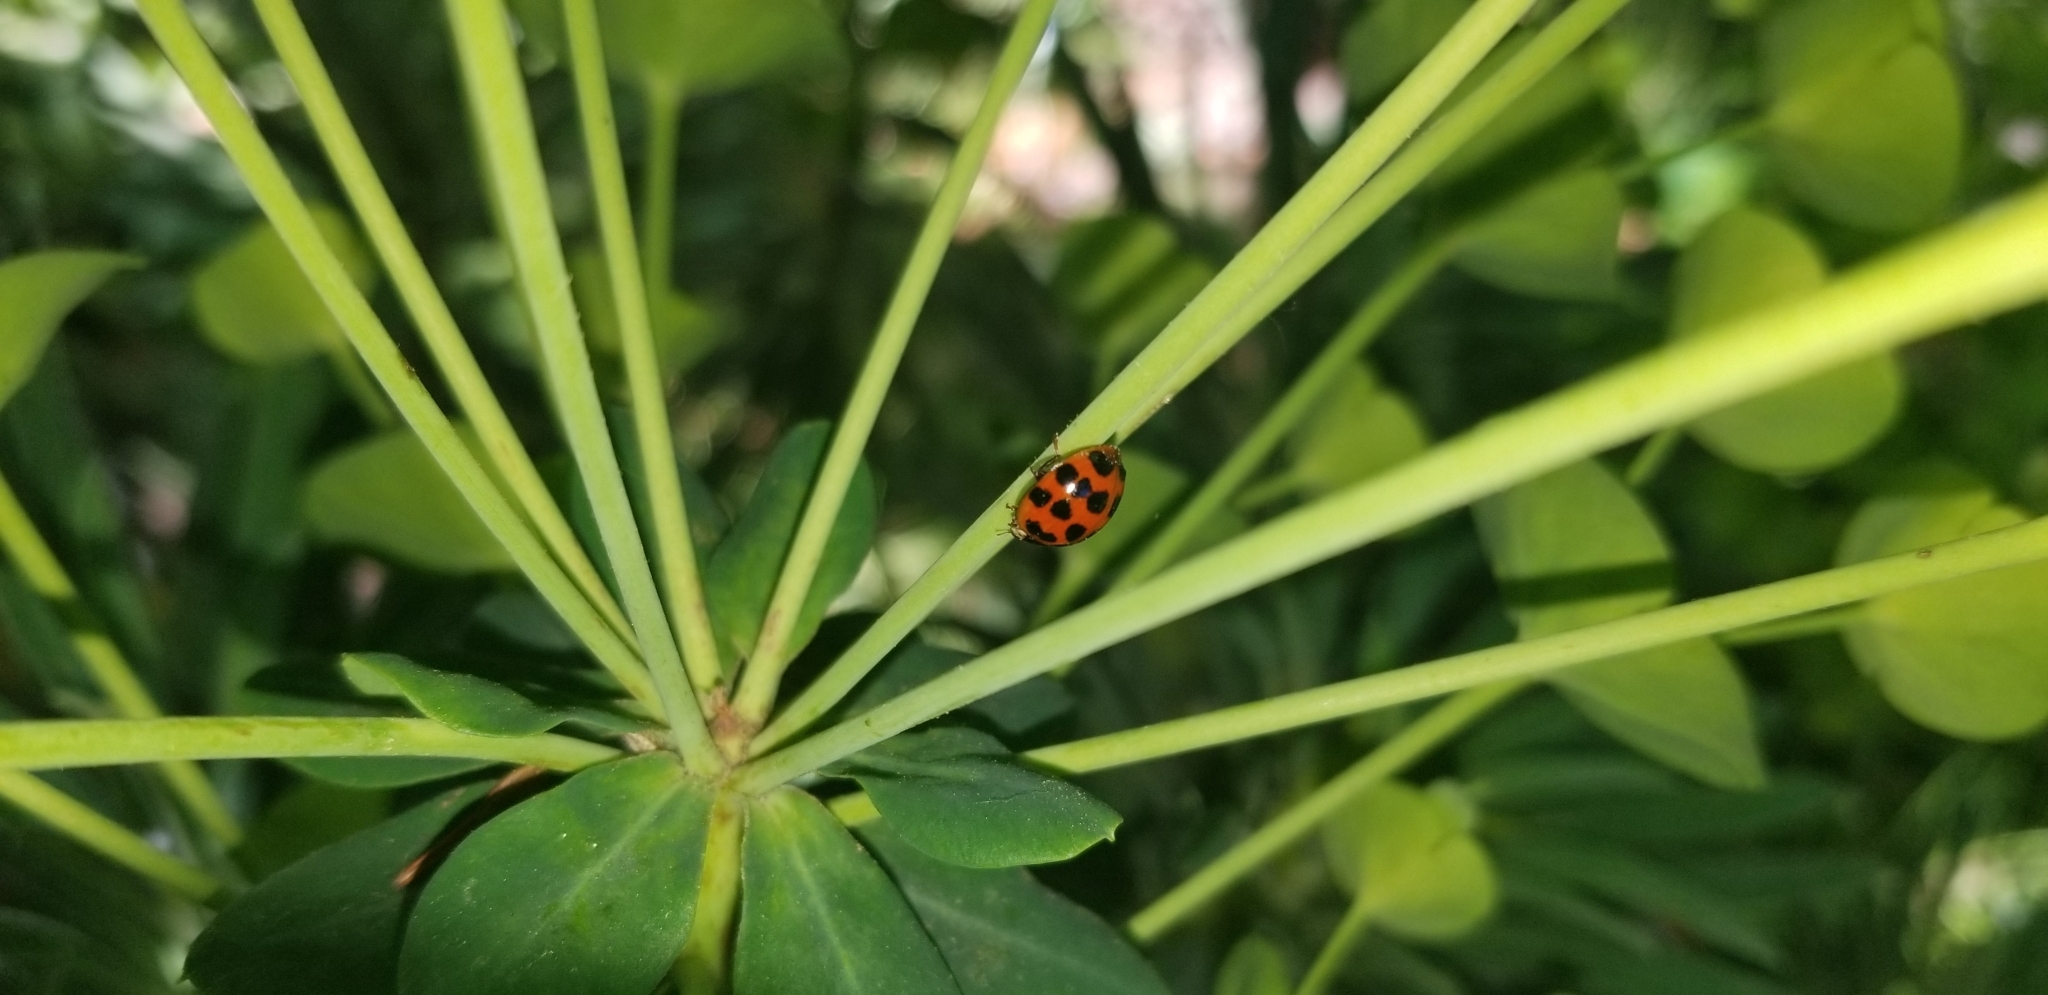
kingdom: Animalia
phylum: Arthropoda
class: Insecta
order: Coleoptera
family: Coccinellidae
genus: Harmonia
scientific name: Harmonia axyridis
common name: Harlequin ladybird
